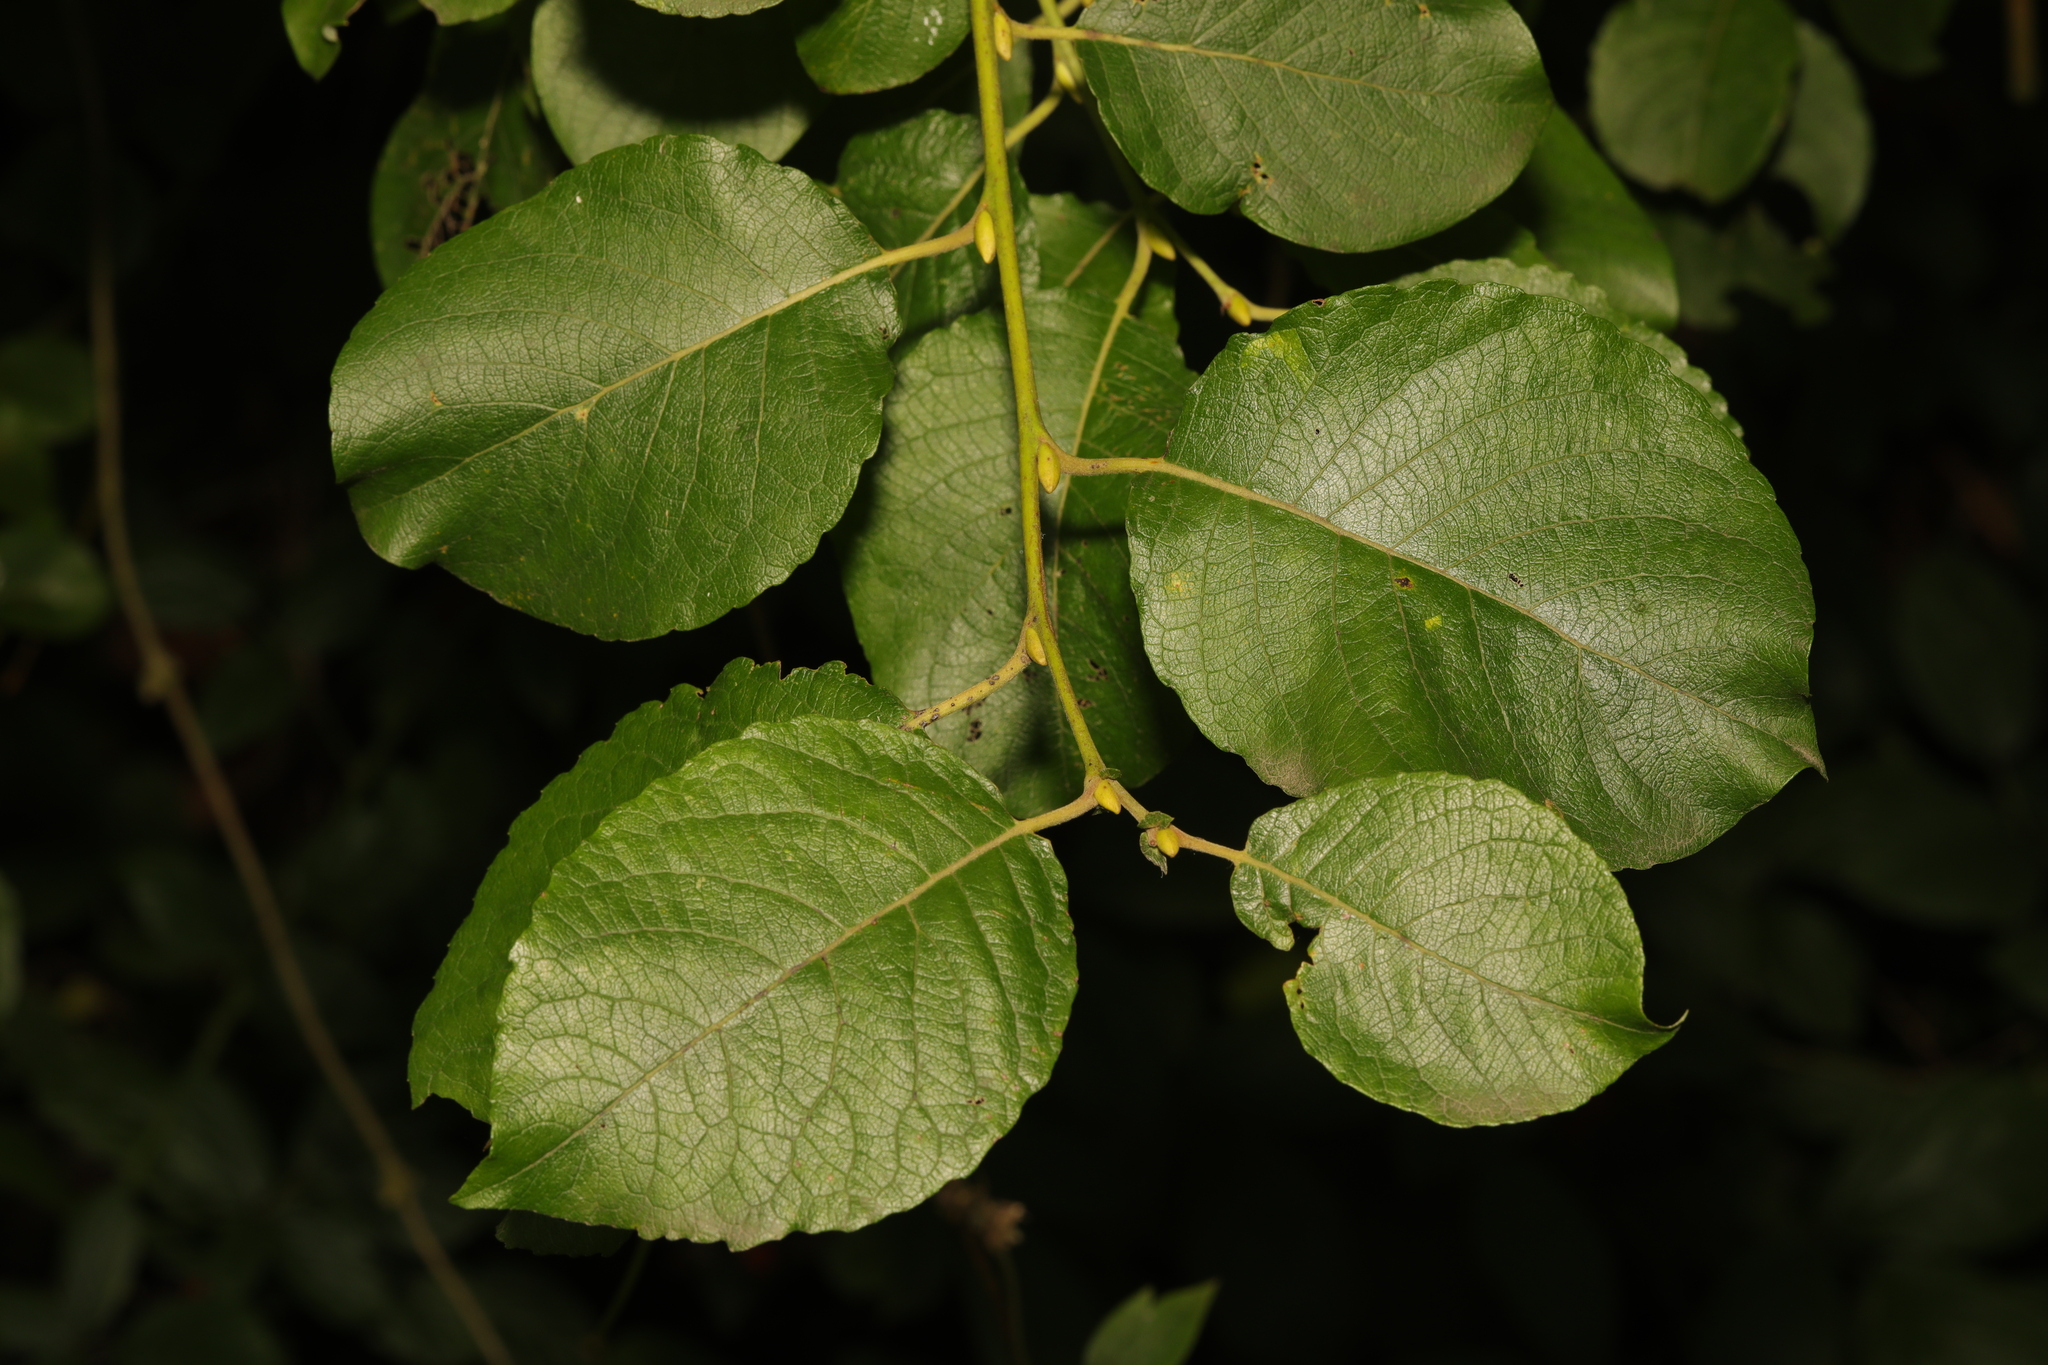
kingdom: Plantae
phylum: Tracheophyta
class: Magnoliopsida
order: Malpighiales
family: Salicaceae
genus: Salix
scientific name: Salix caprea
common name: Goat willow
